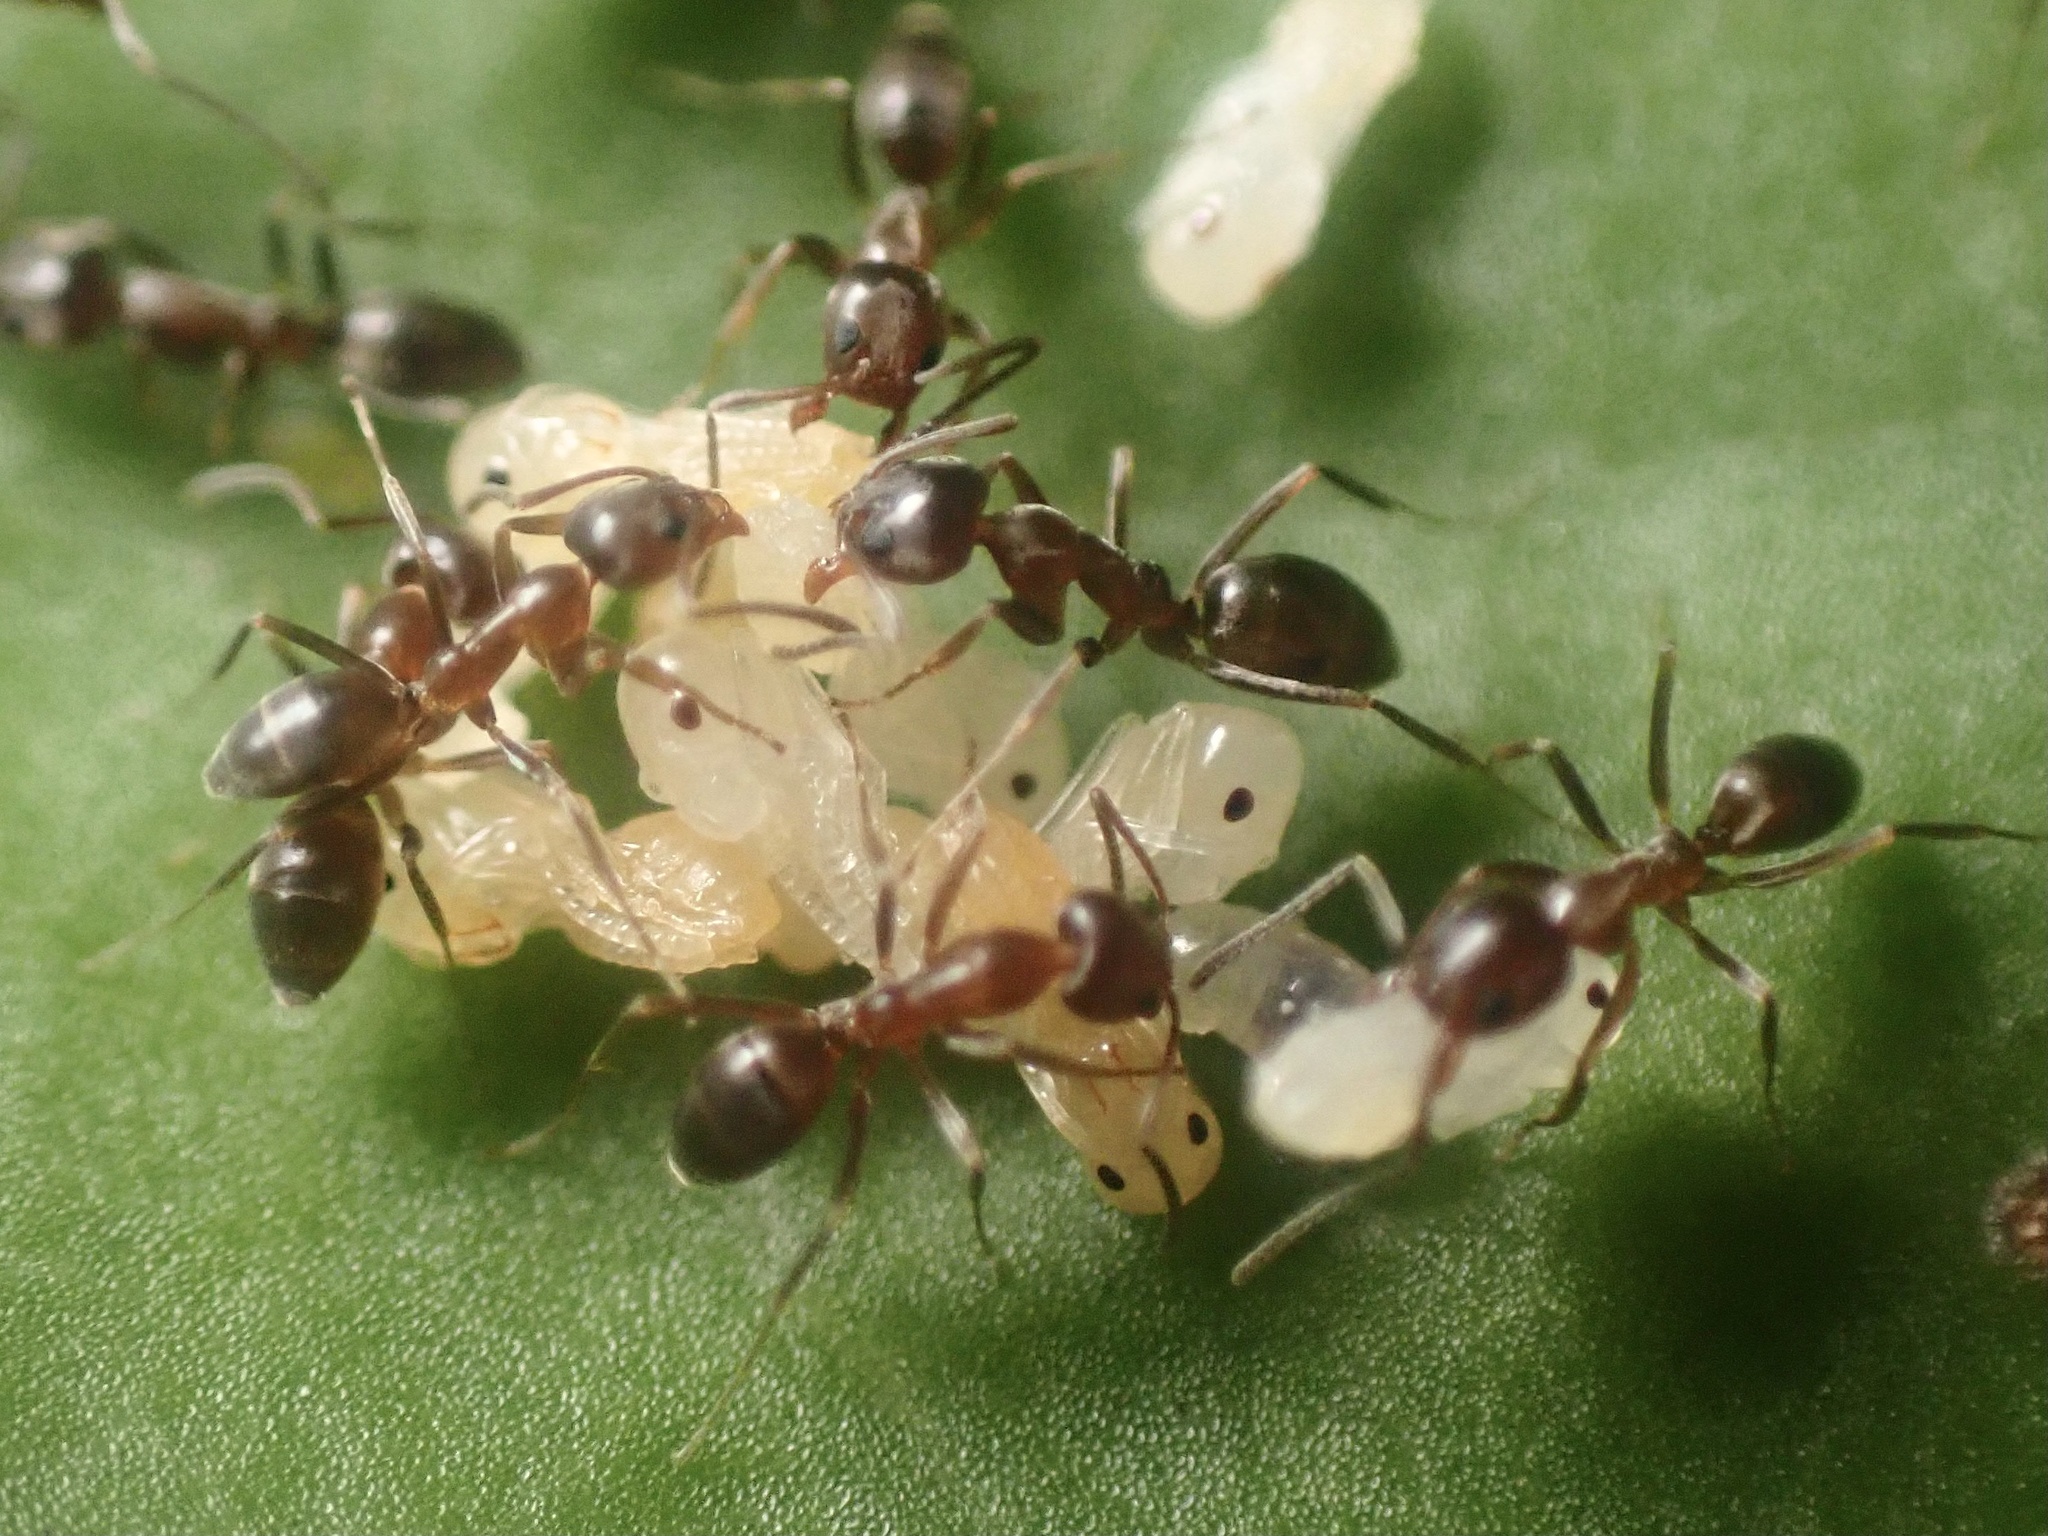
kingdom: Animalia
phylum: Arthropoda
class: Insecta
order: Hymenoptera
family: Formicidae
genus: Linepithema
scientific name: Linepithema humile
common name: Argentine ant
